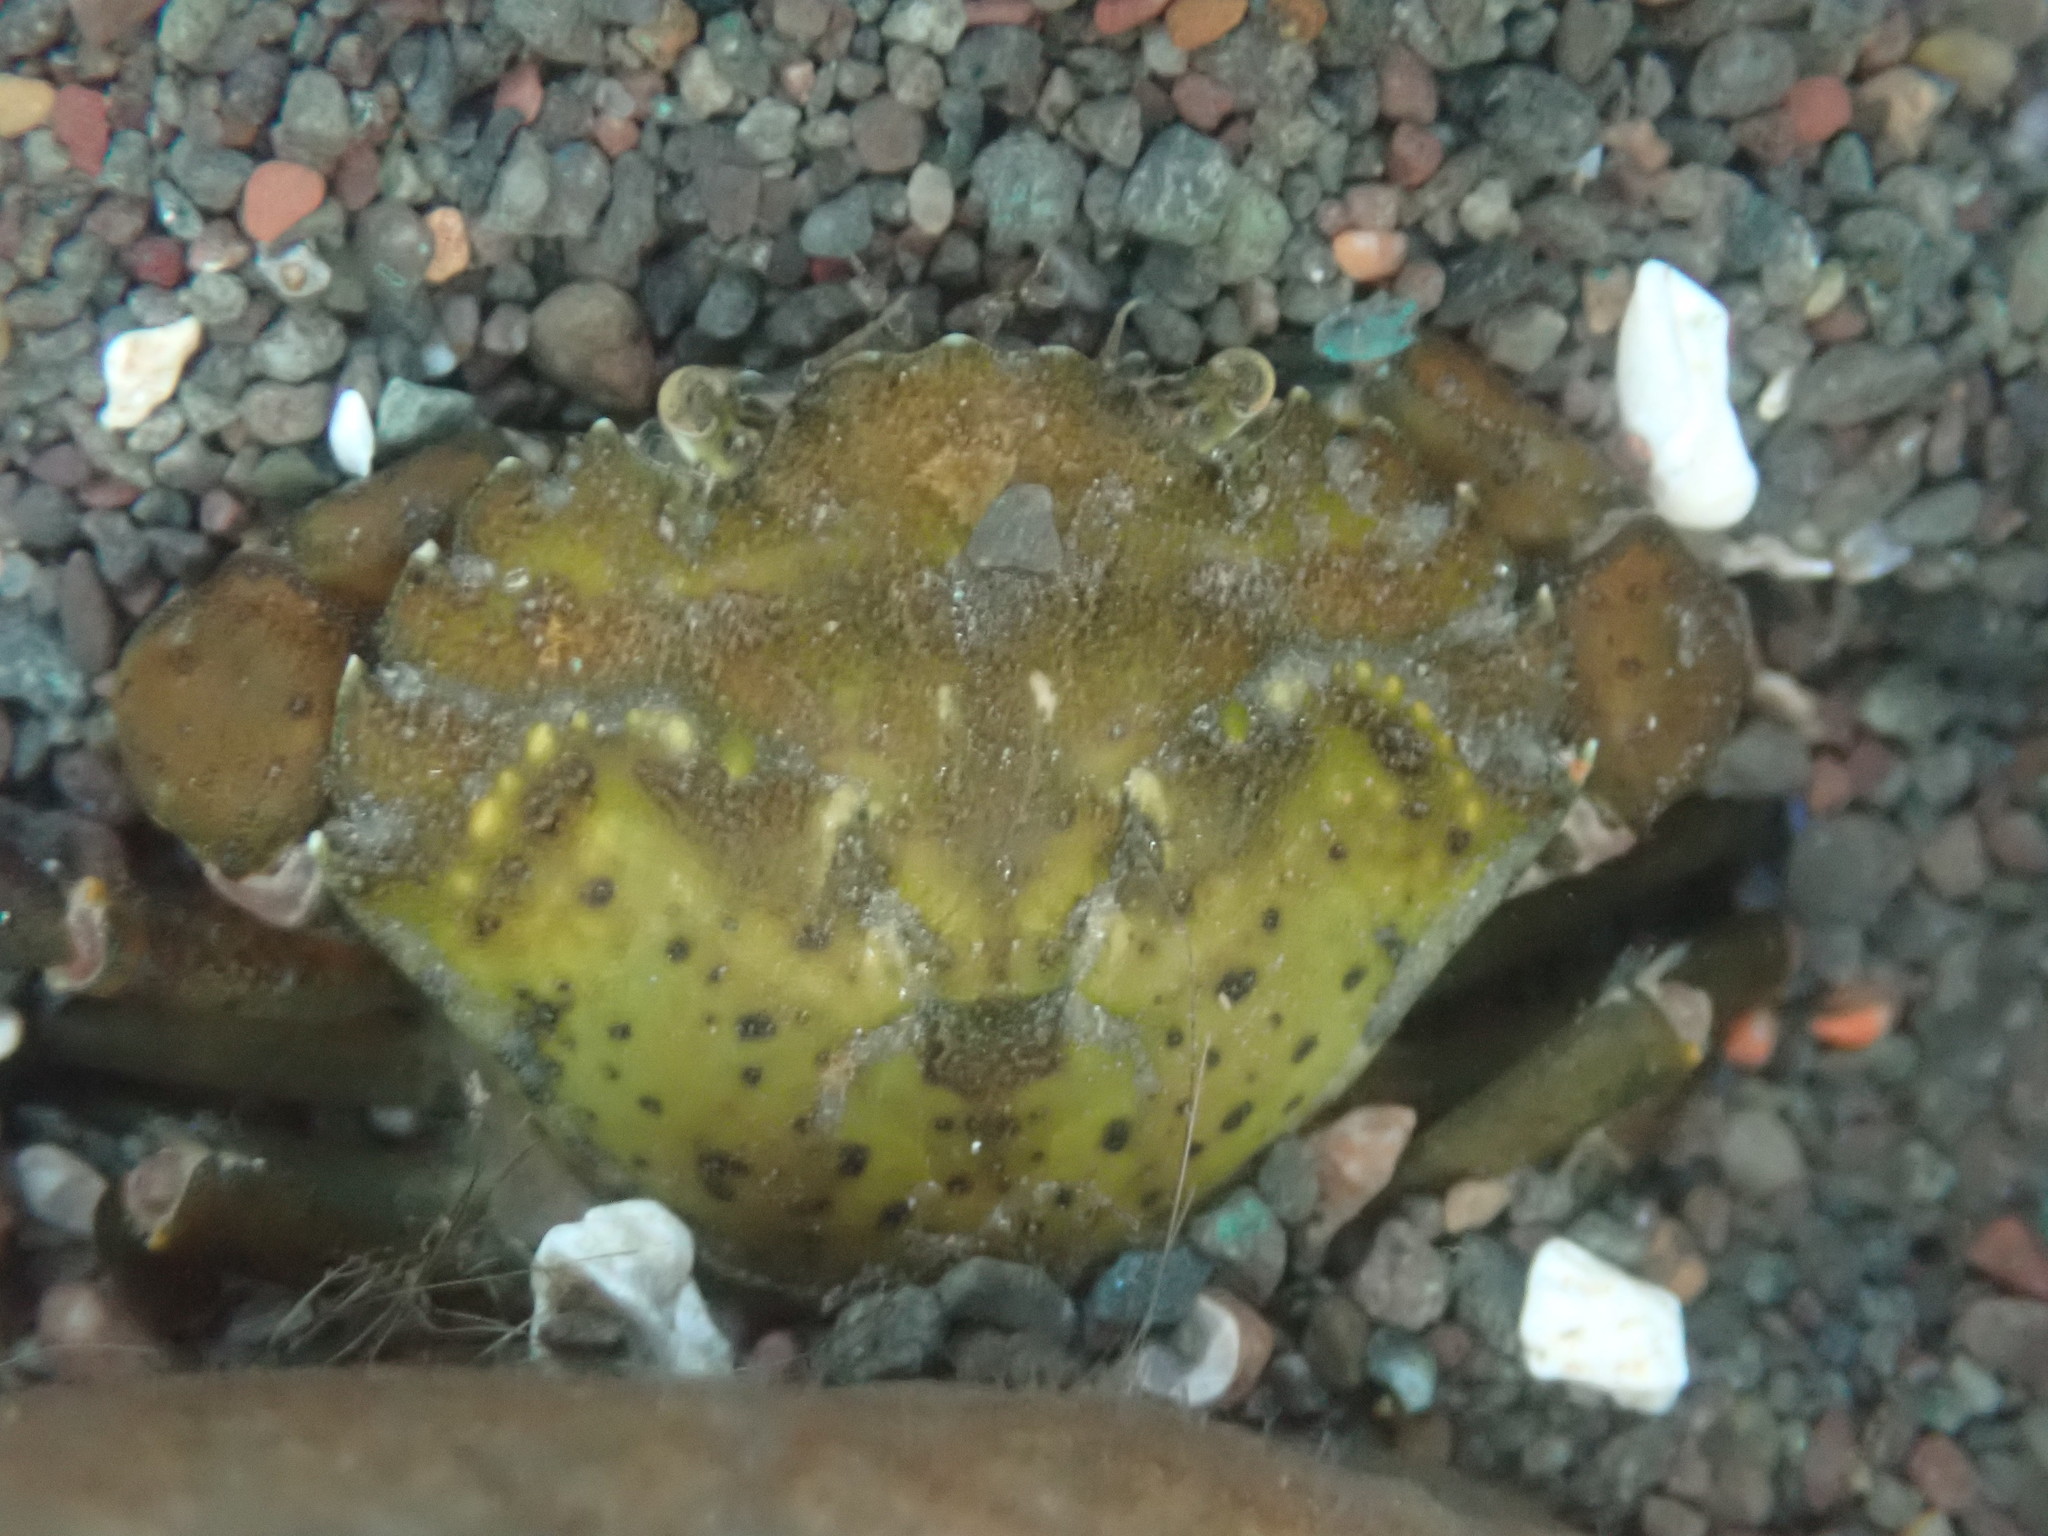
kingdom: Animalia
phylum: Arthropoda
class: Malacostraca
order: Decapoda
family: Carcinidae
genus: Carcinus
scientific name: Carcinus maenas
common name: European green crab
